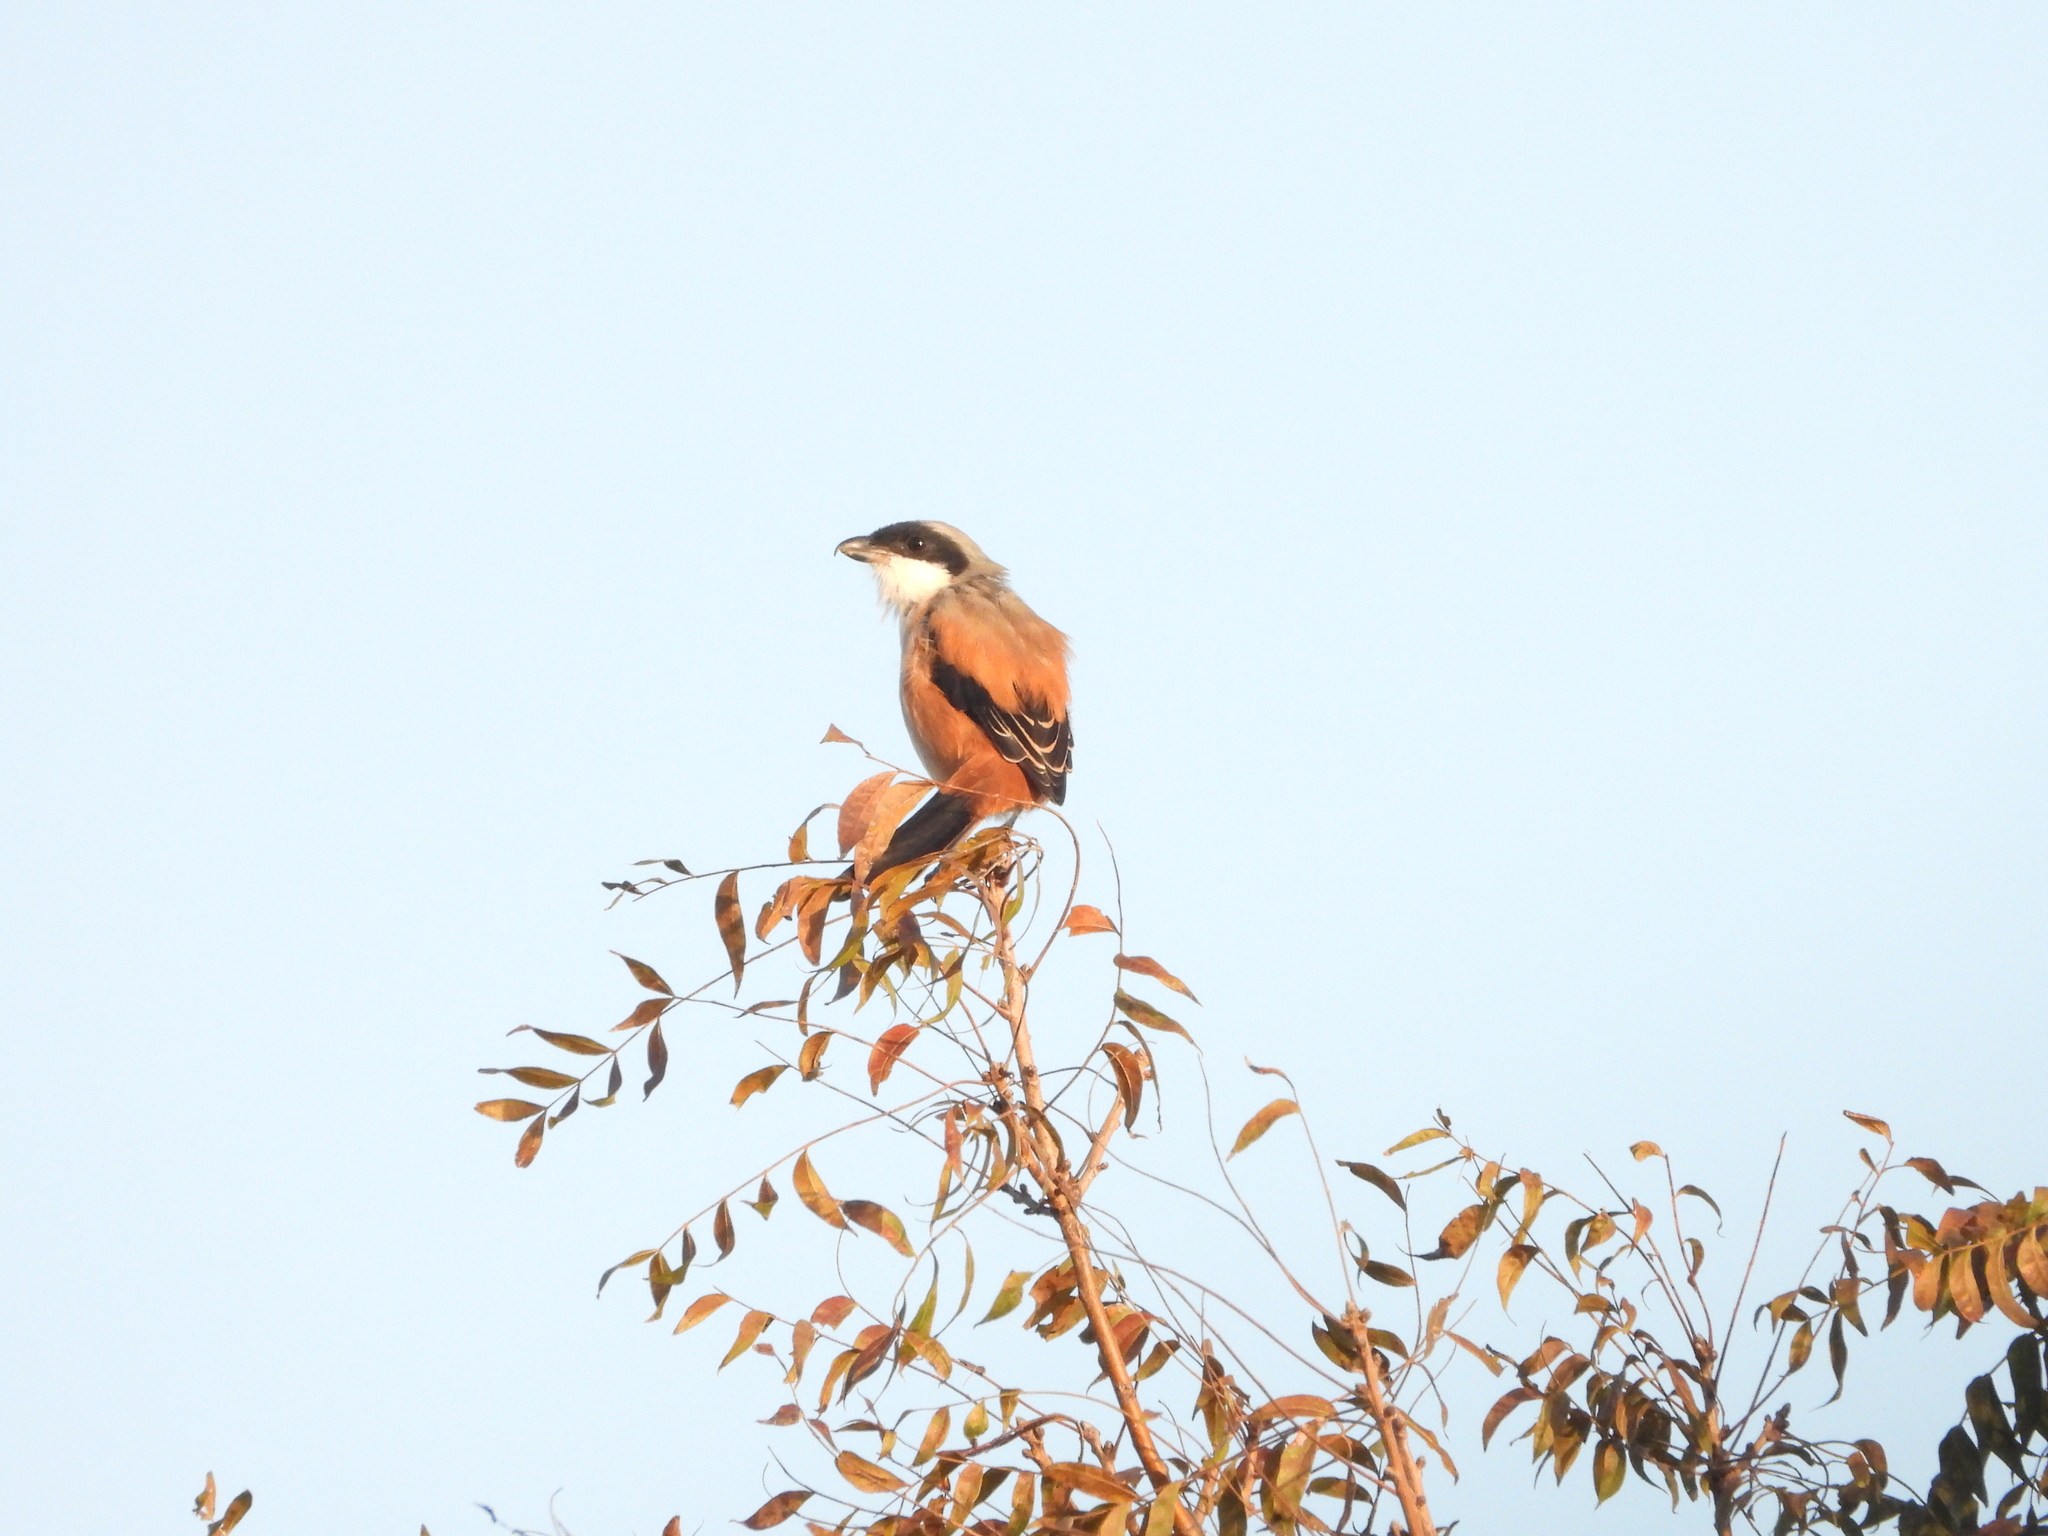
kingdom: Animalia
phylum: Chordata
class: Aves
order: Passeriformes
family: Laniidae
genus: Lanius
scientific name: Lanius schach
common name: Long-tailed shrike
